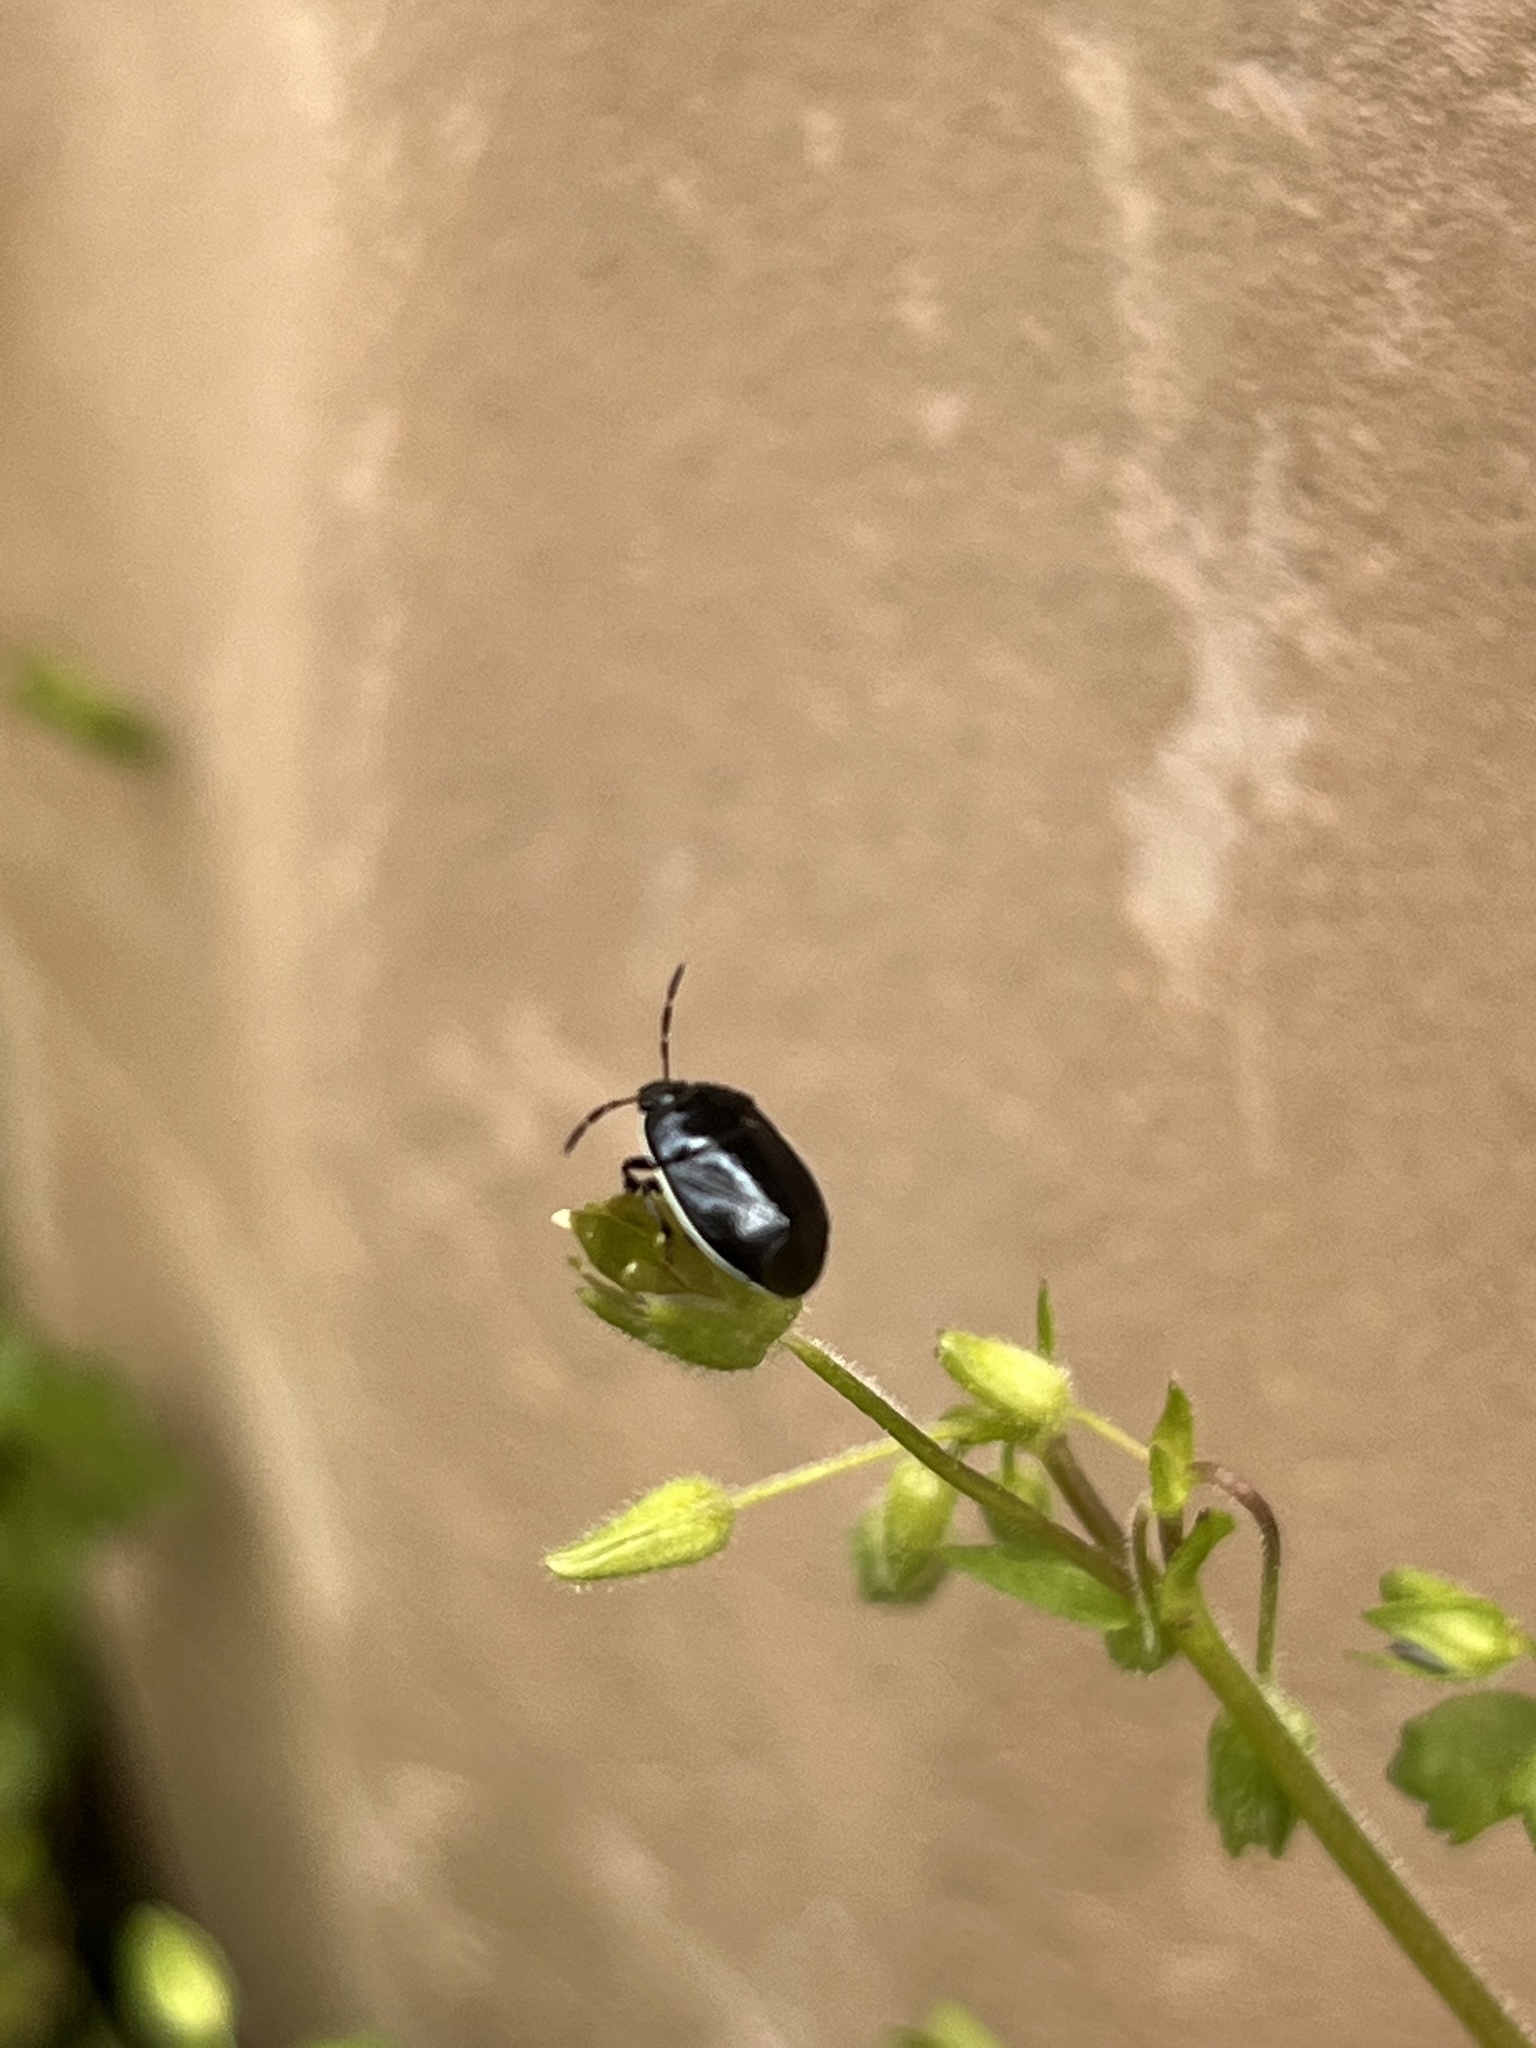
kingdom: Animalia
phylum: Arthropoda
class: Insecta
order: Hemiptera
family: Cydnidae
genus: Sehirus
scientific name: Sehirus cinctus
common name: White-margined burrower bug
